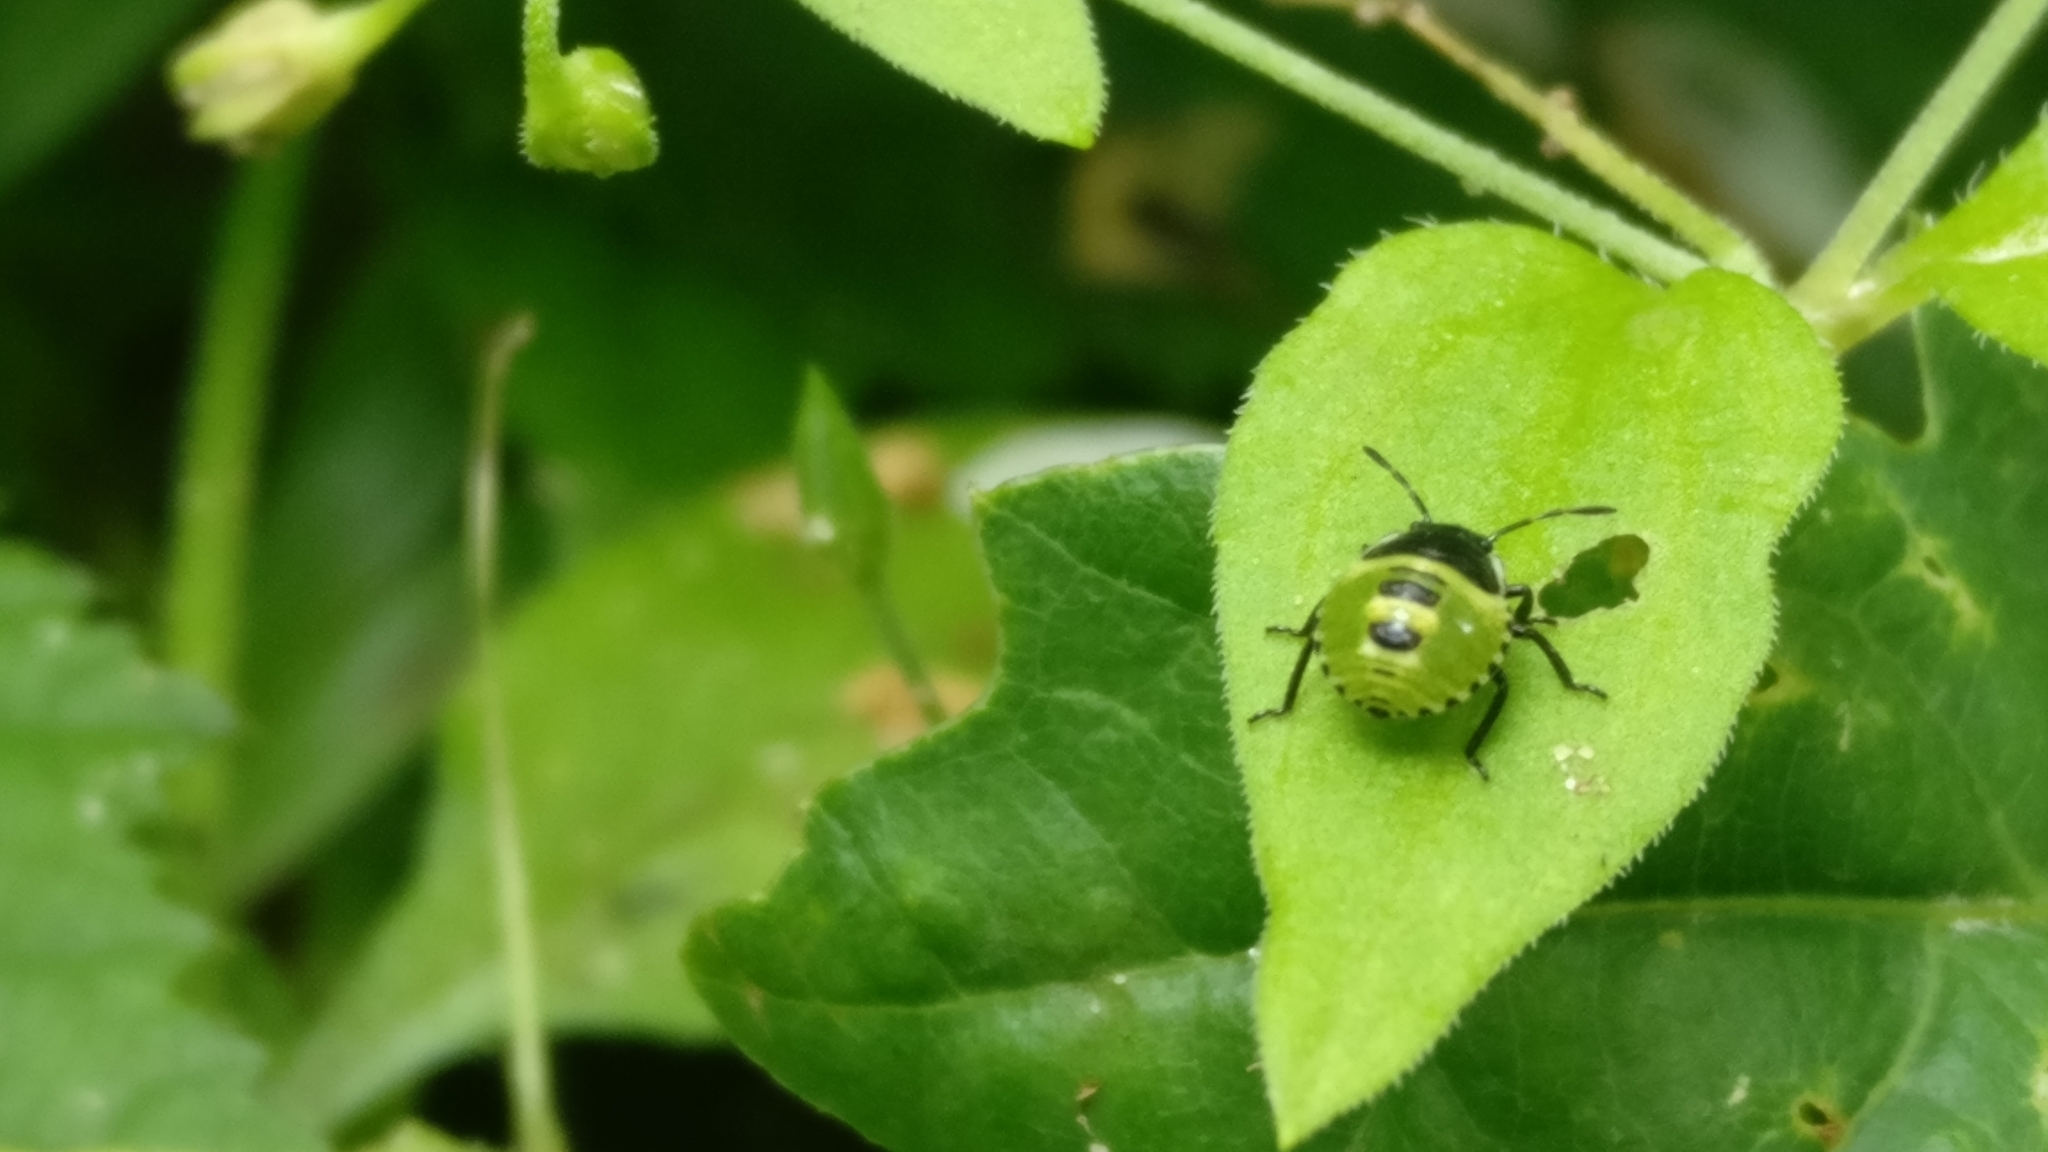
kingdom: Animalia
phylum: Arthropoda
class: Insecta
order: Hemiptera
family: Pentatomidae
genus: Palomena
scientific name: Palomena prasina
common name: Green shieldbug
